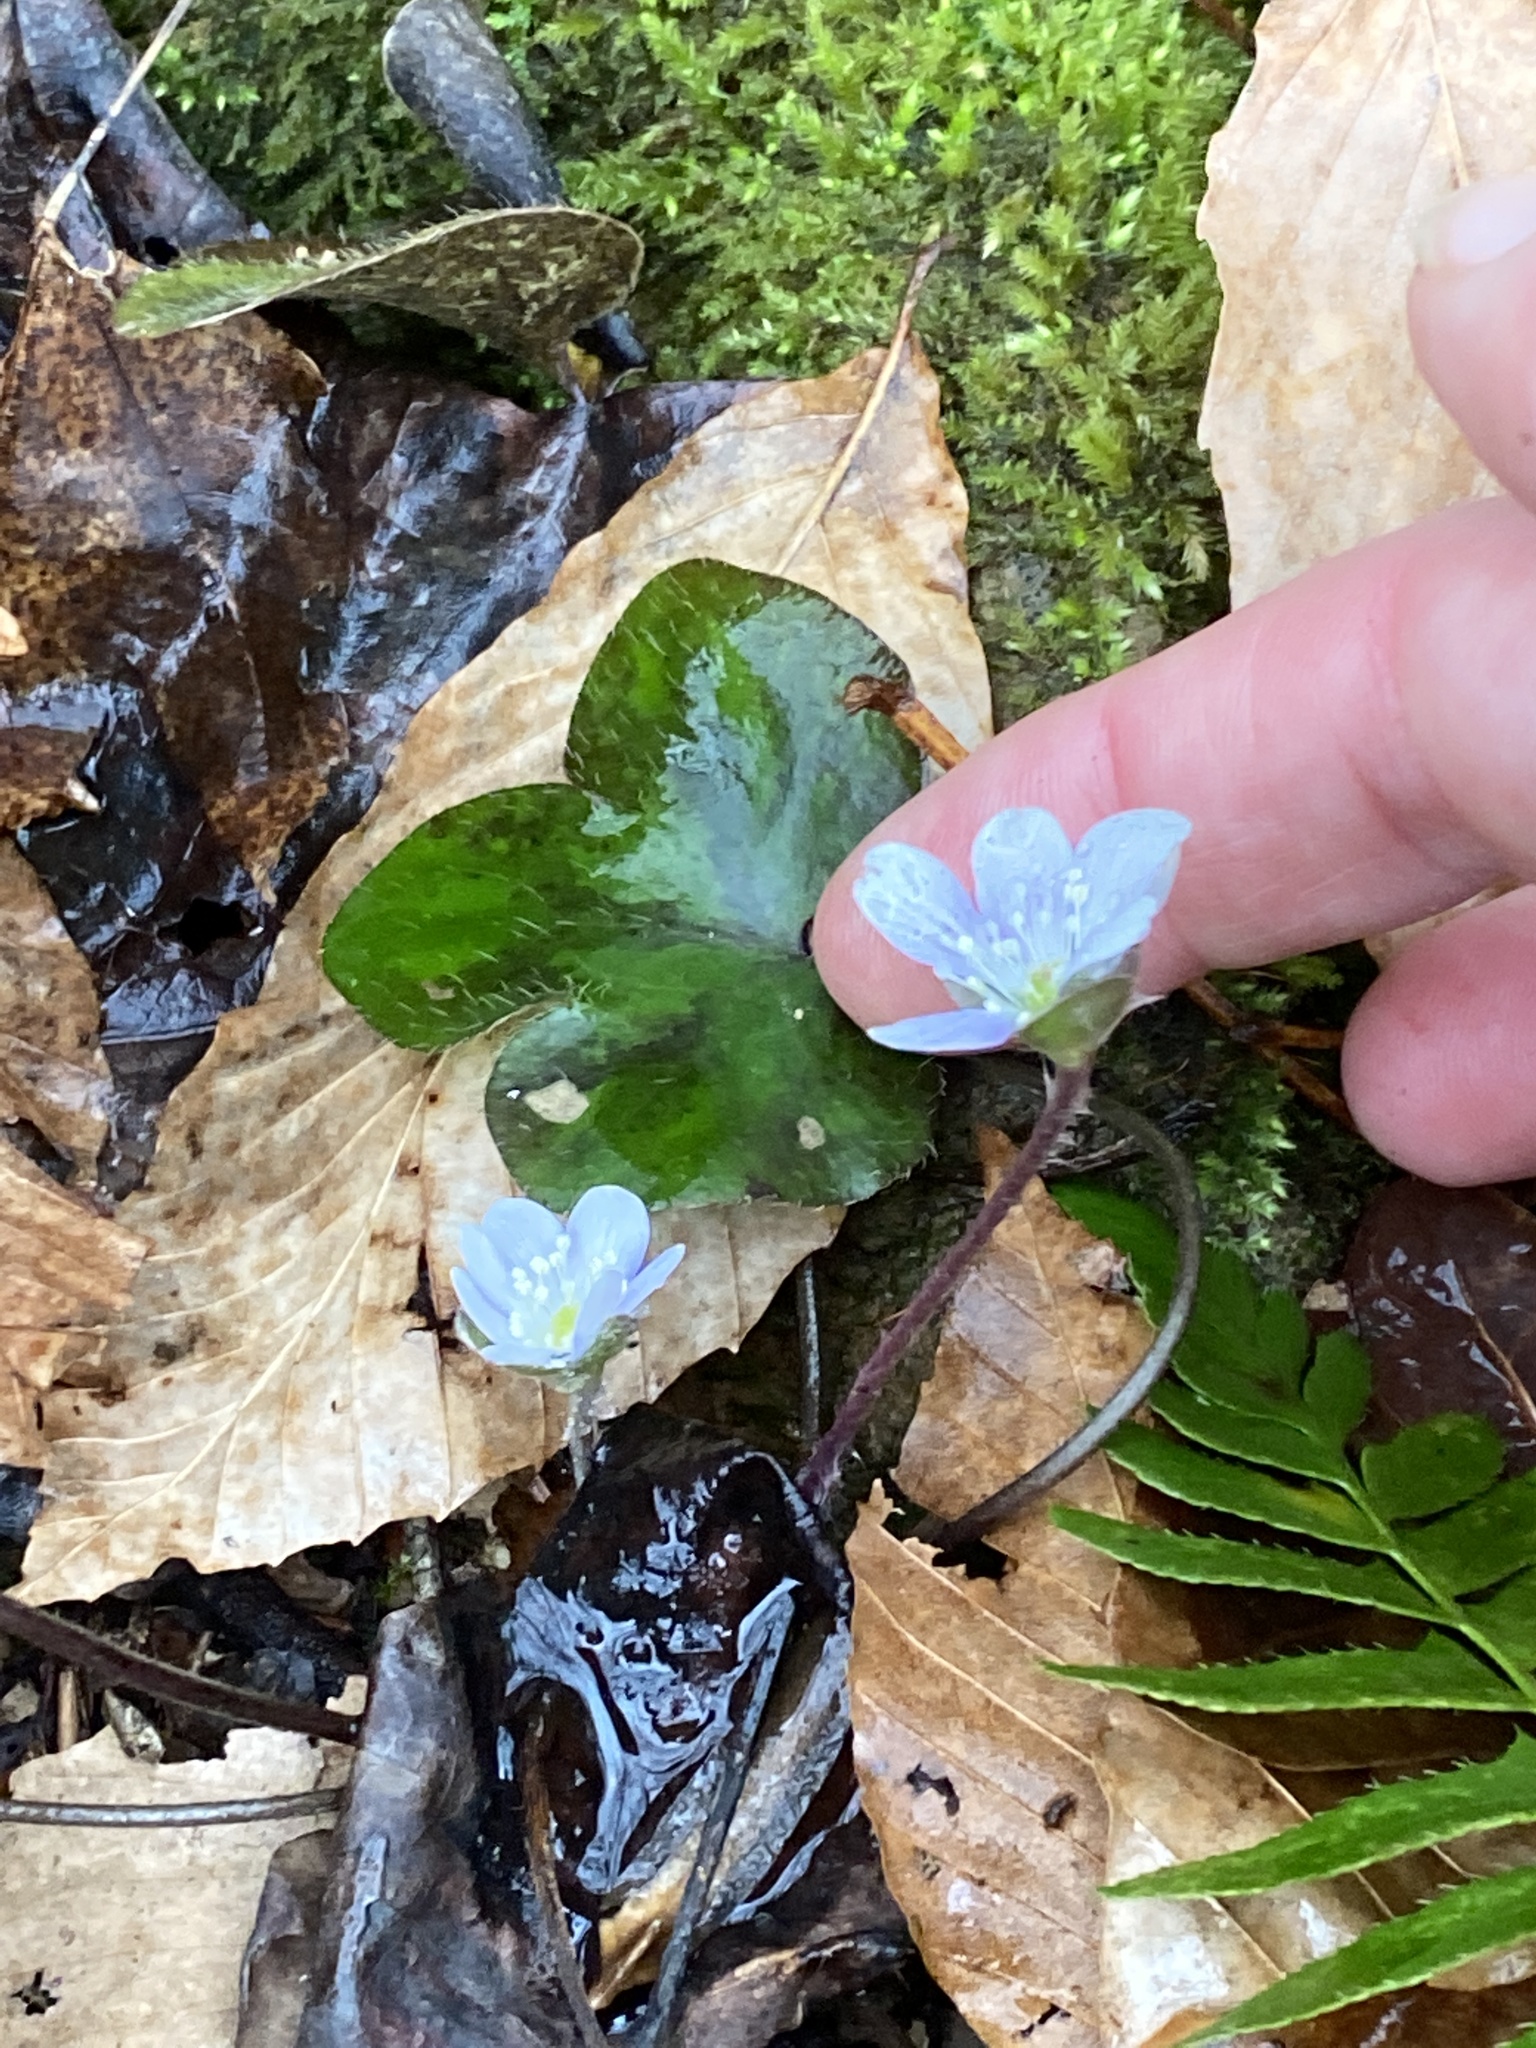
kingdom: Plantae
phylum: Tracheophyta
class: Magnoliopsida
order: Ranunculales
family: Ranunculaceae
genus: Hepatica
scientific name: Hepatica americana
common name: American hepatica
